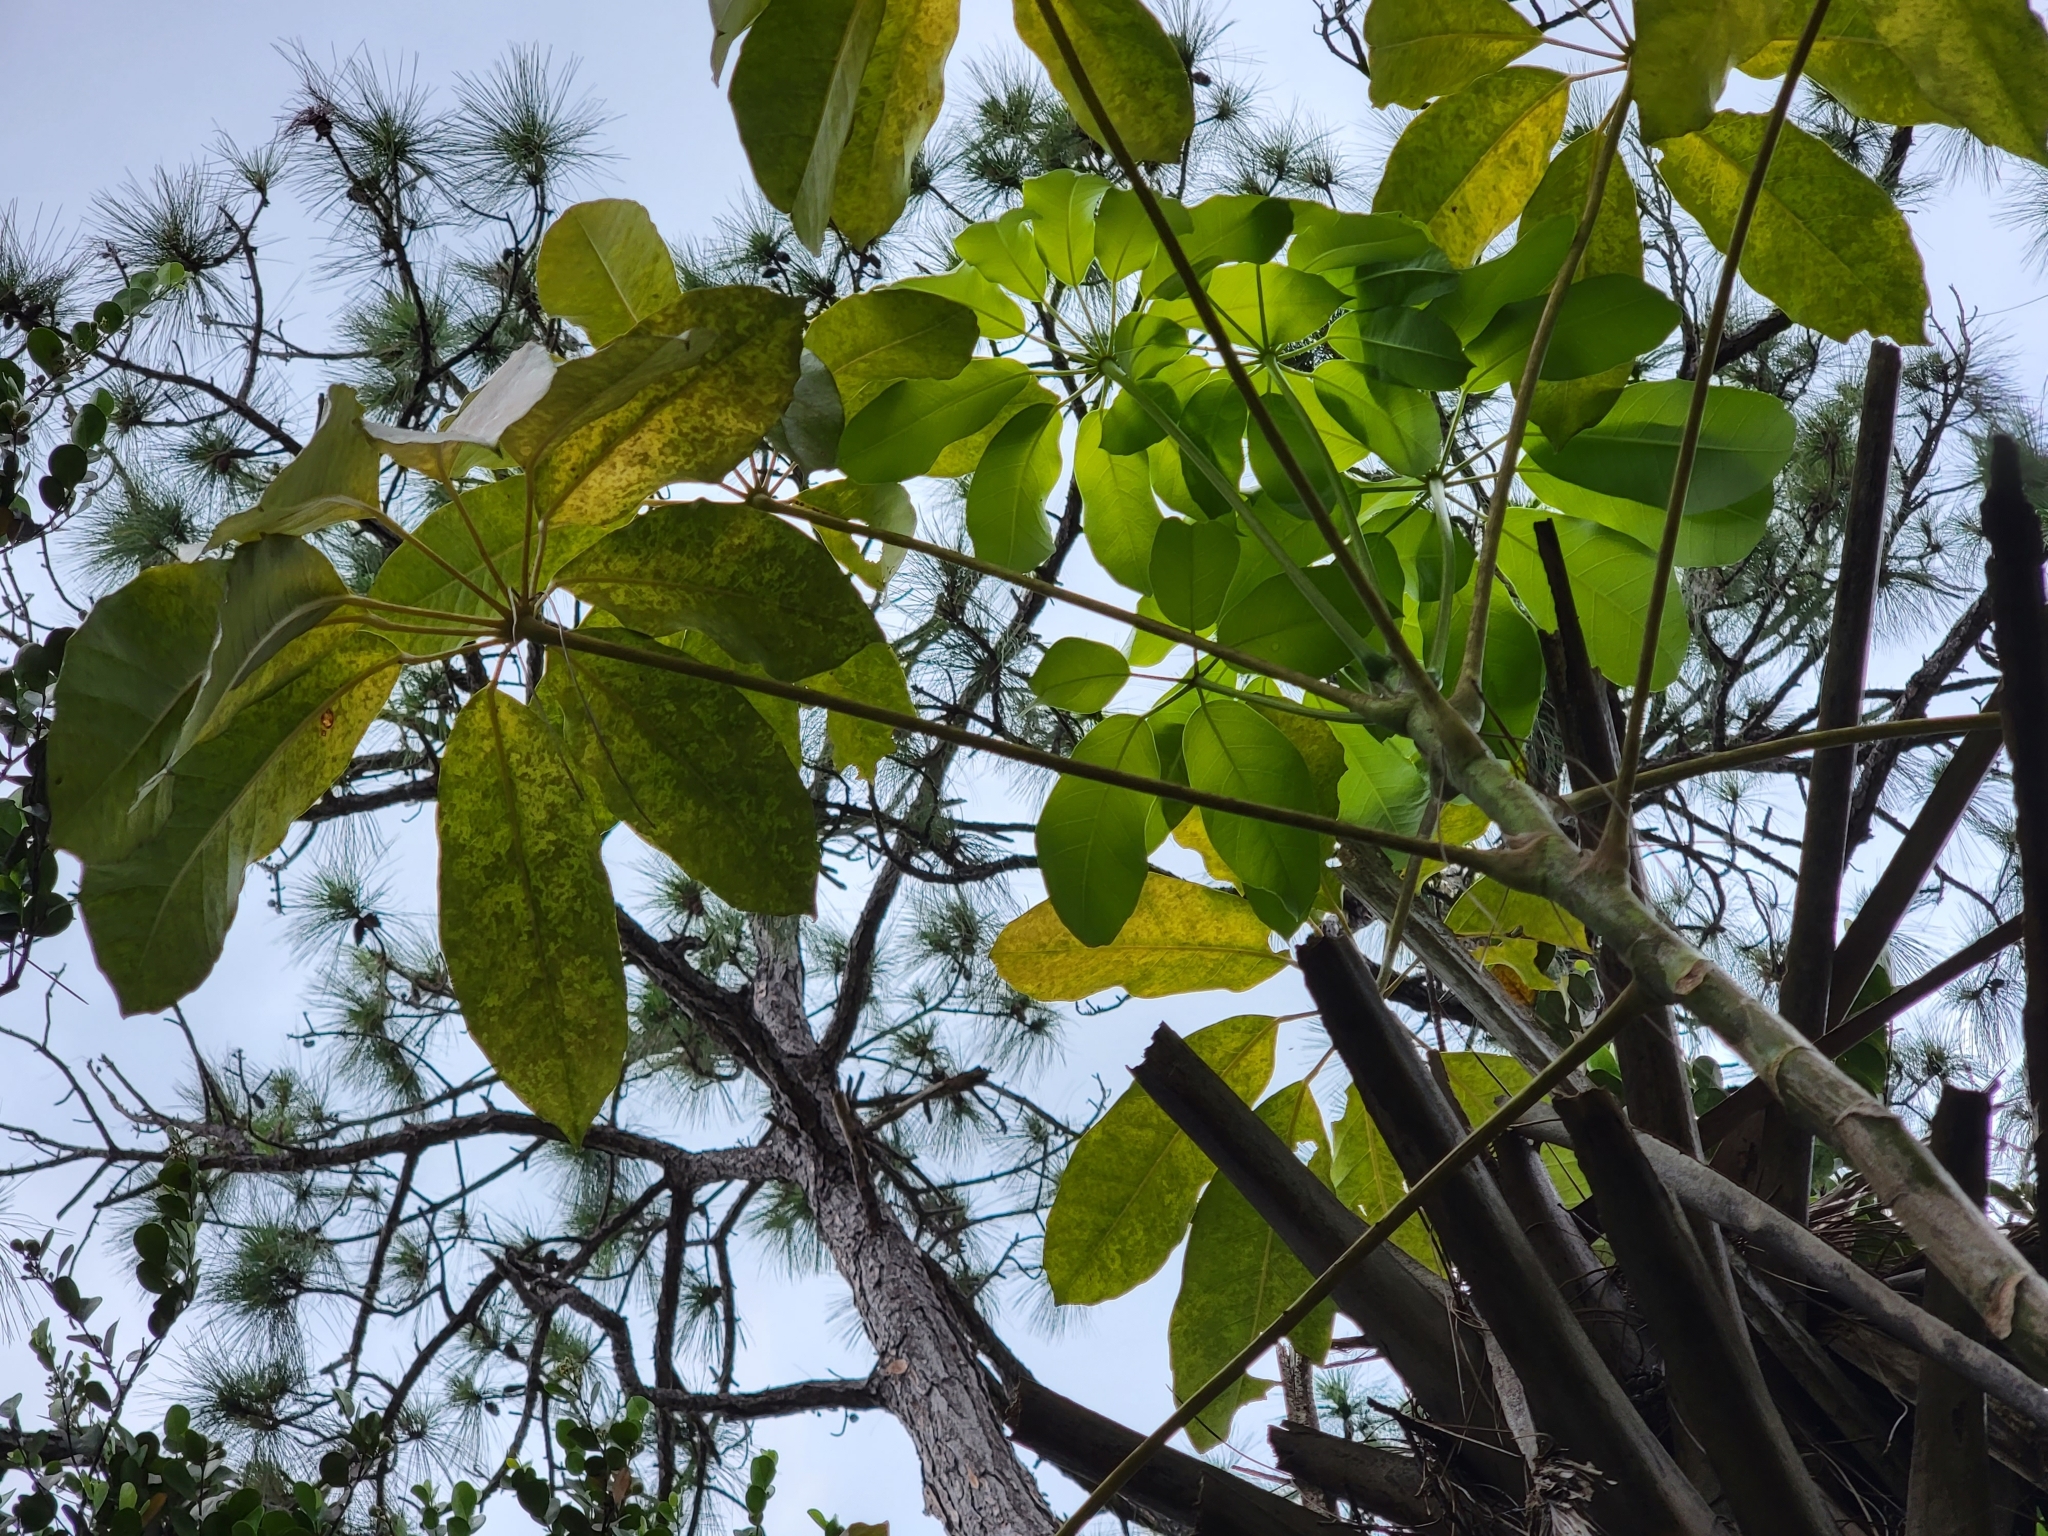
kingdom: Plantae
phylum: Tracheophyta
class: Magnoliopsida
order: Apiales
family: Araliaceae
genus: Heptapleurum
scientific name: Heptapleurum actinophyllum
